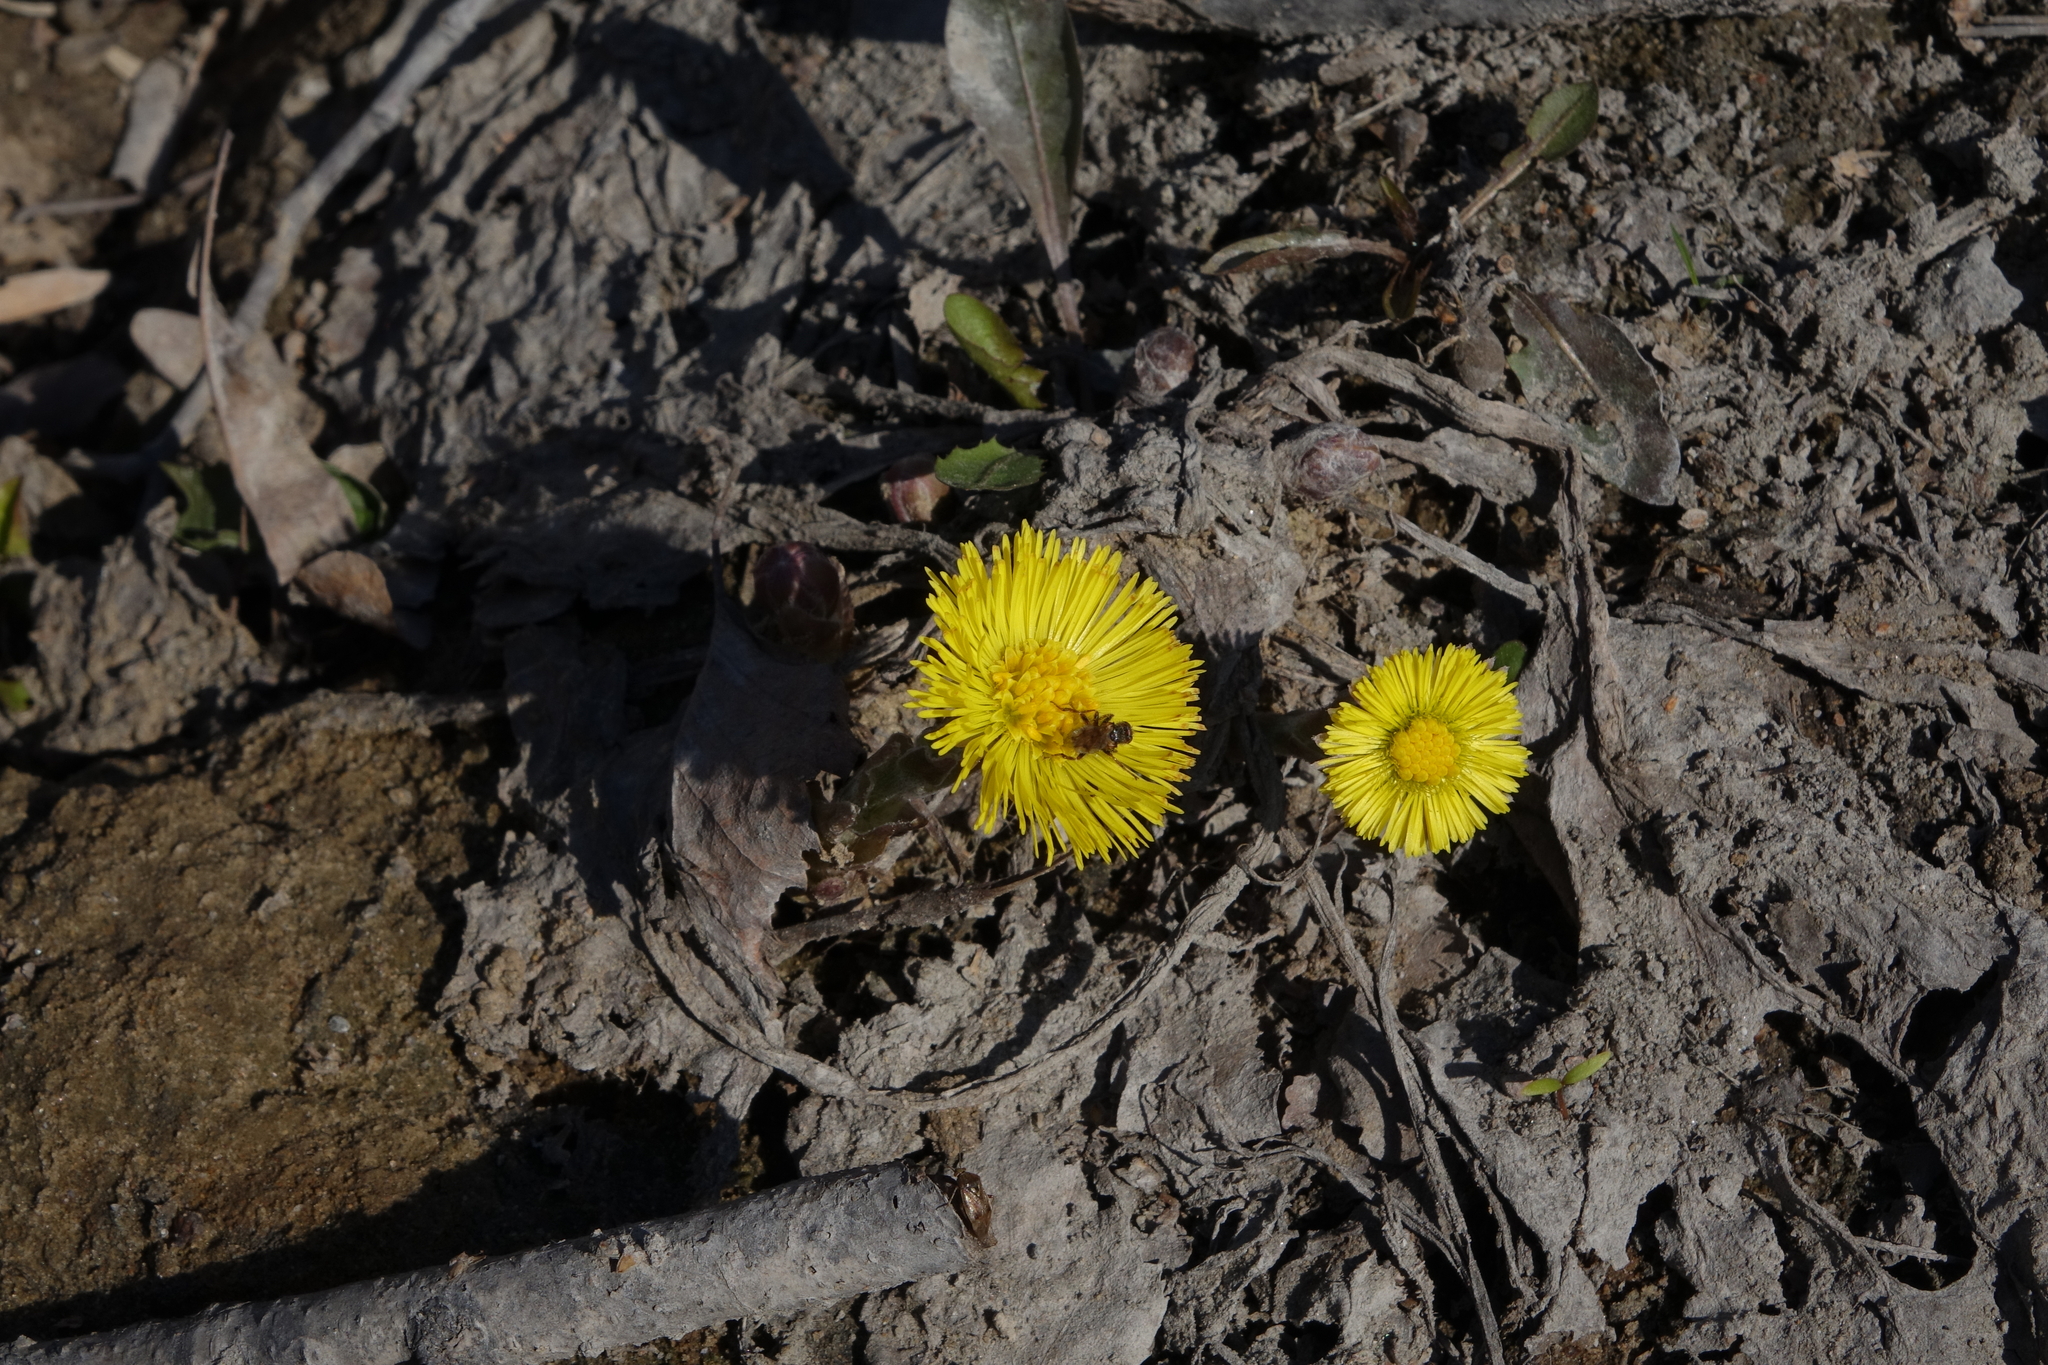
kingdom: Plantae
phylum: Tracheophyta
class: Magnoliopsida
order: Asterales
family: Asteraceae
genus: Tussilago
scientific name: Tussilago farfara
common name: Coltsfoot
